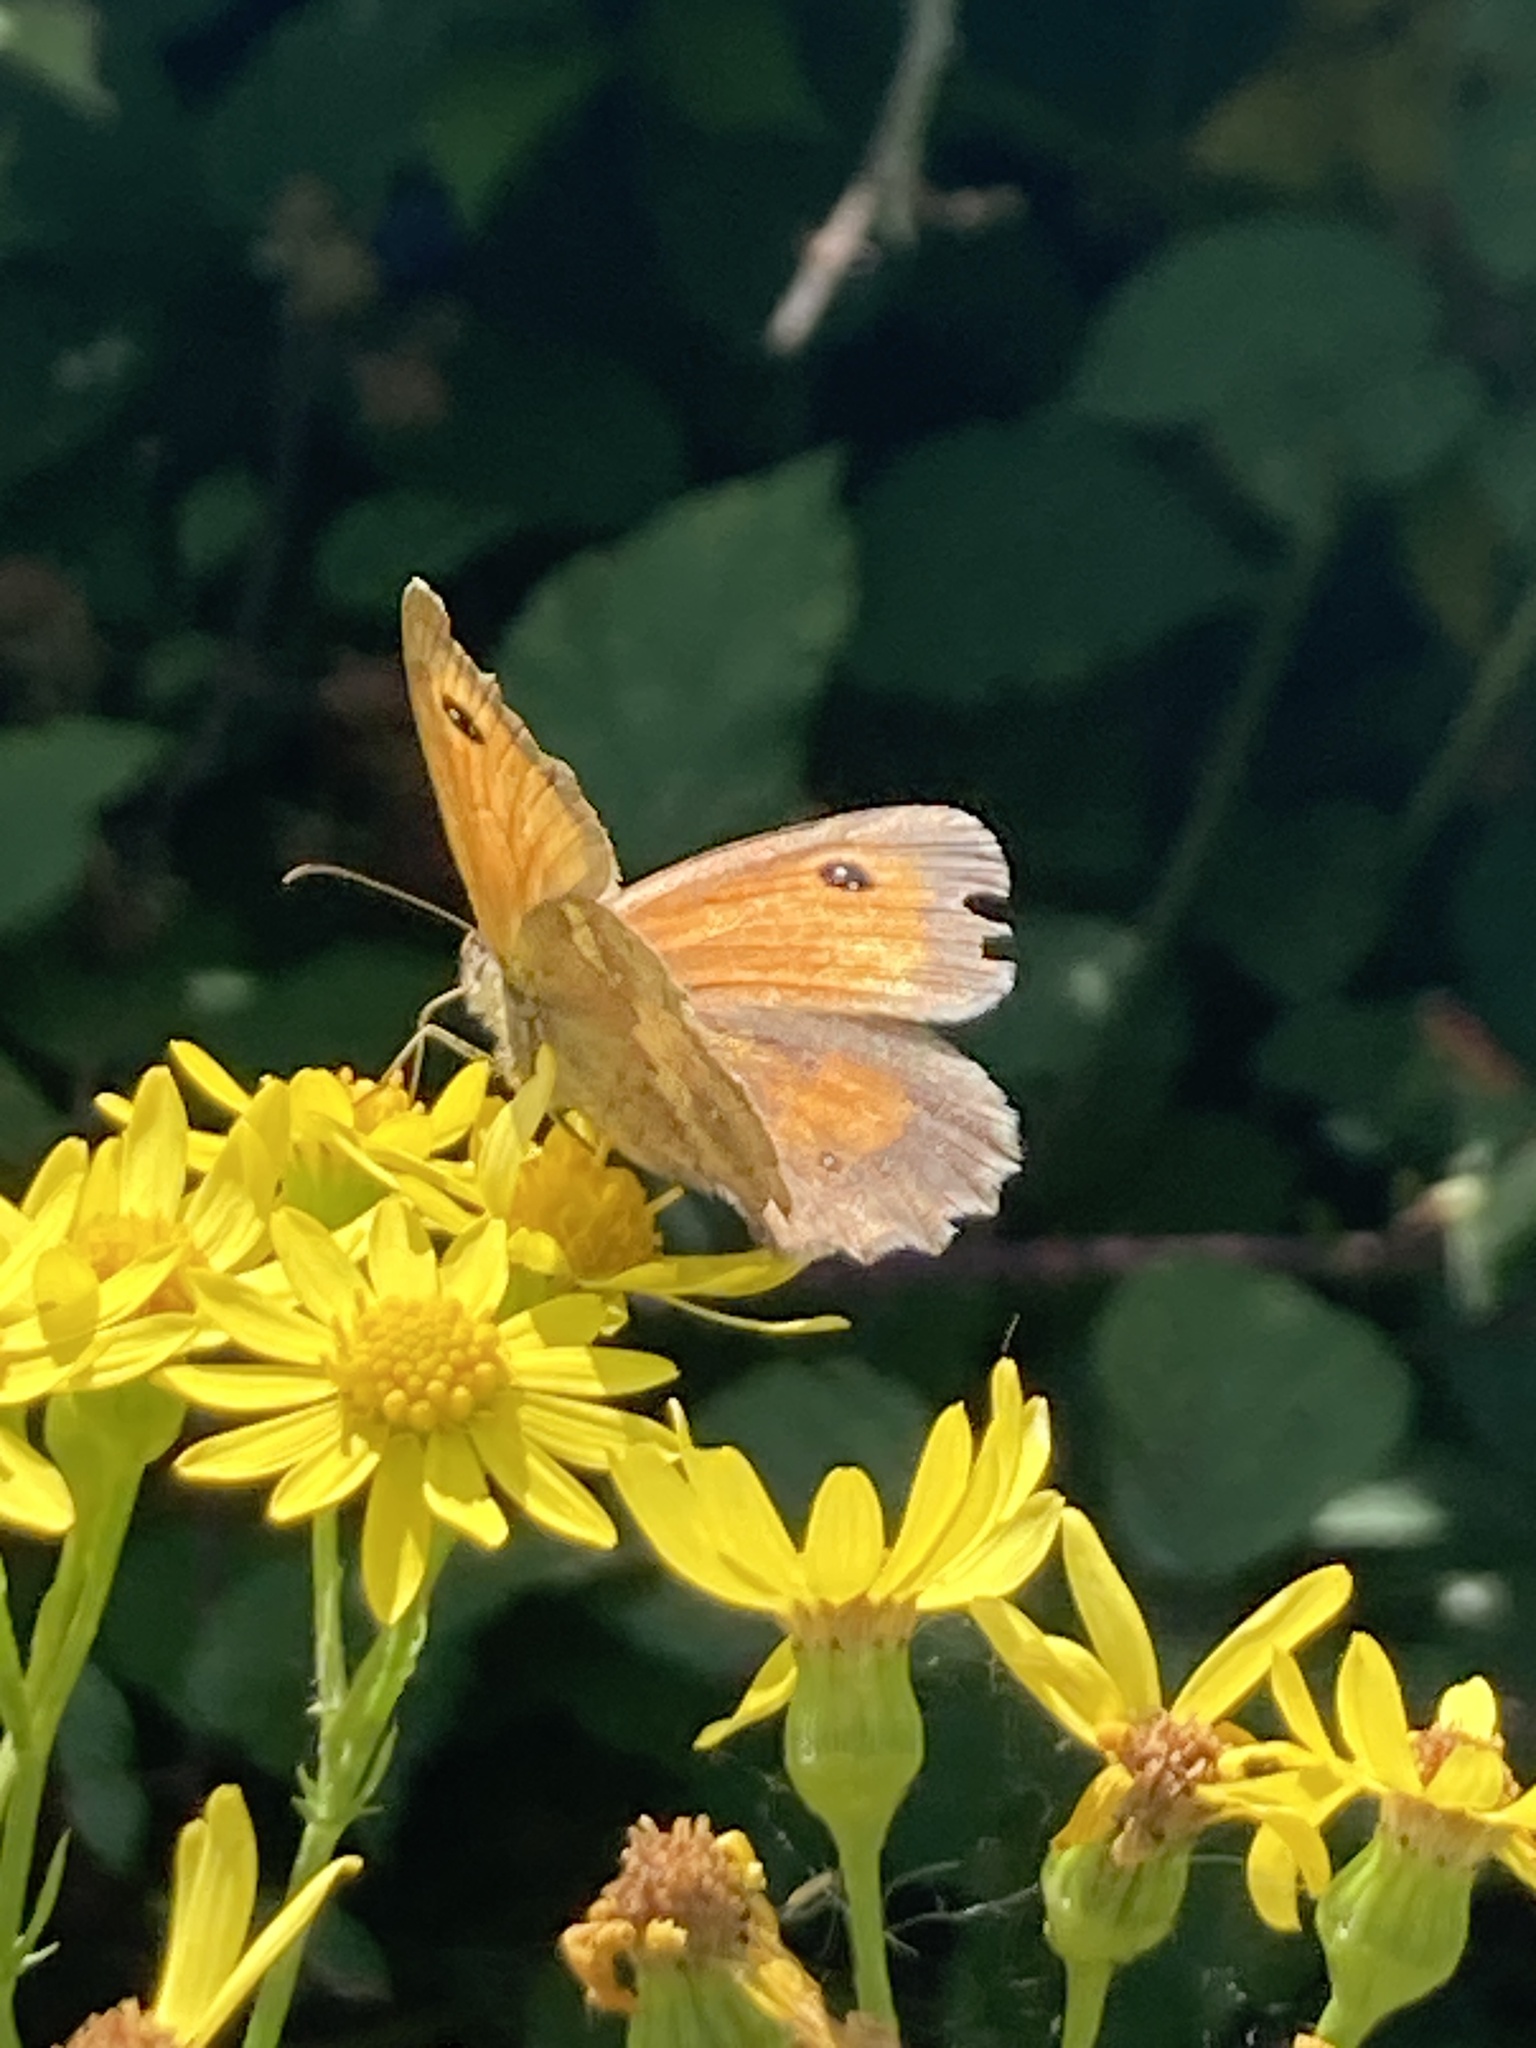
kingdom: Animalia
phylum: Arthropoda
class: Insecta
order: Lepidoptera
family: Nymphalidae
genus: Pyronia
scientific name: Pyronia tithonus
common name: Gatekeeper
